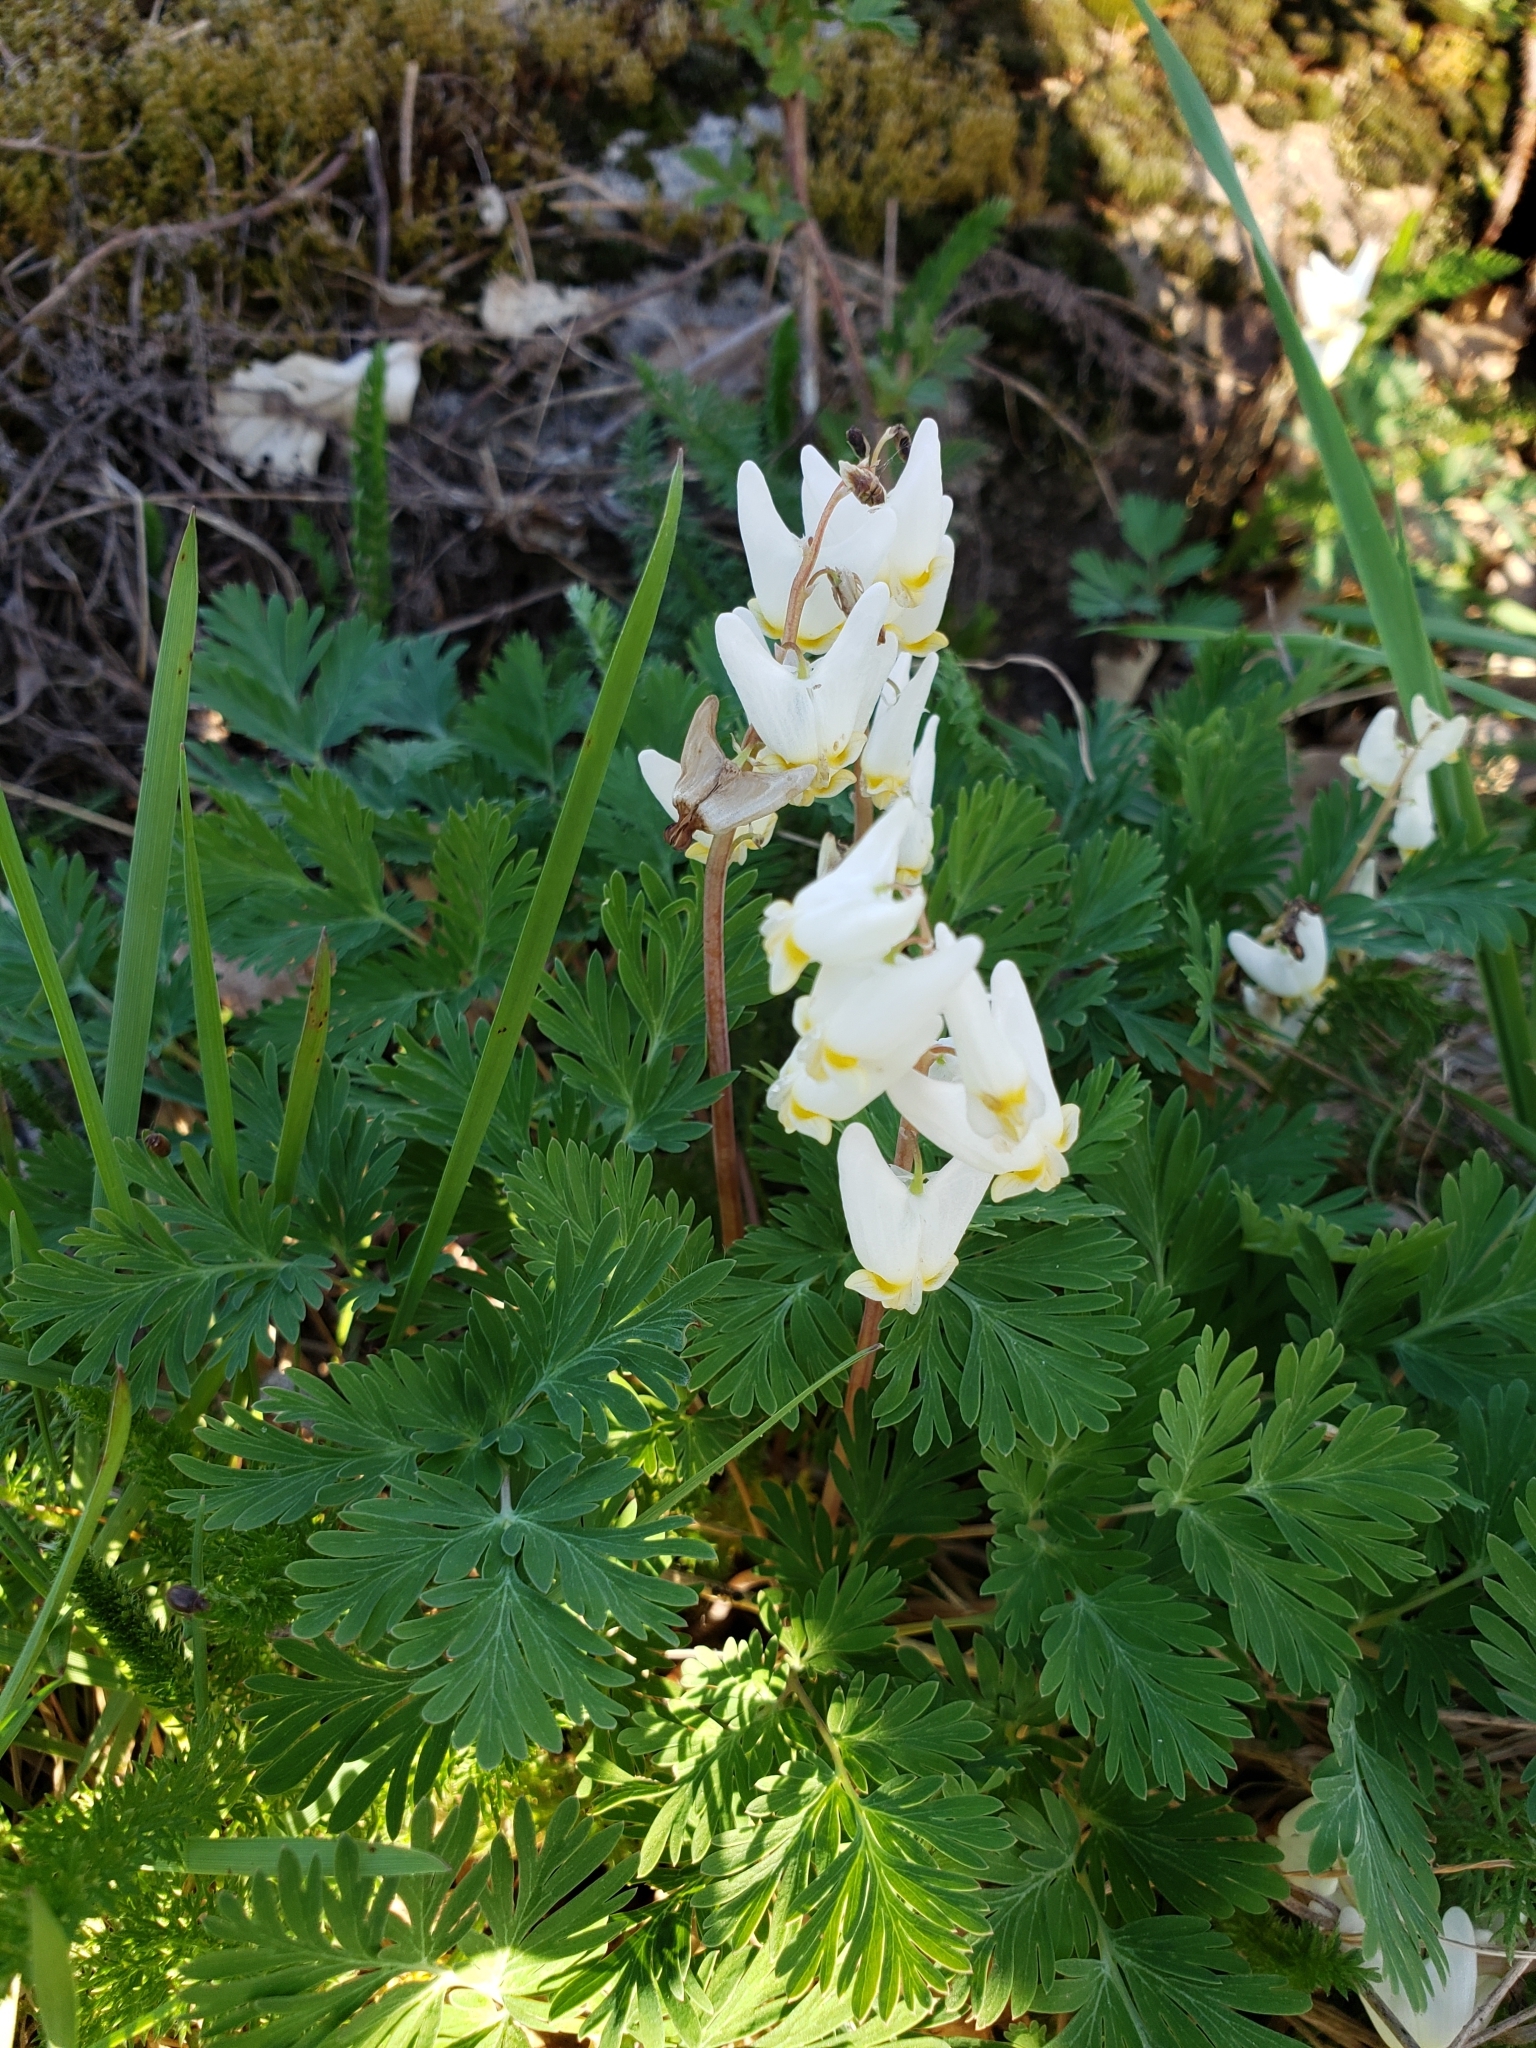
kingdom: Plantae
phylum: Tracheophyta
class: Magnoliopsida
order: Ranunculales
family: Papaveraceae
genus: Dicentra
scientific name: Dicentra cucullaria
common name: Dutchman's breeches
